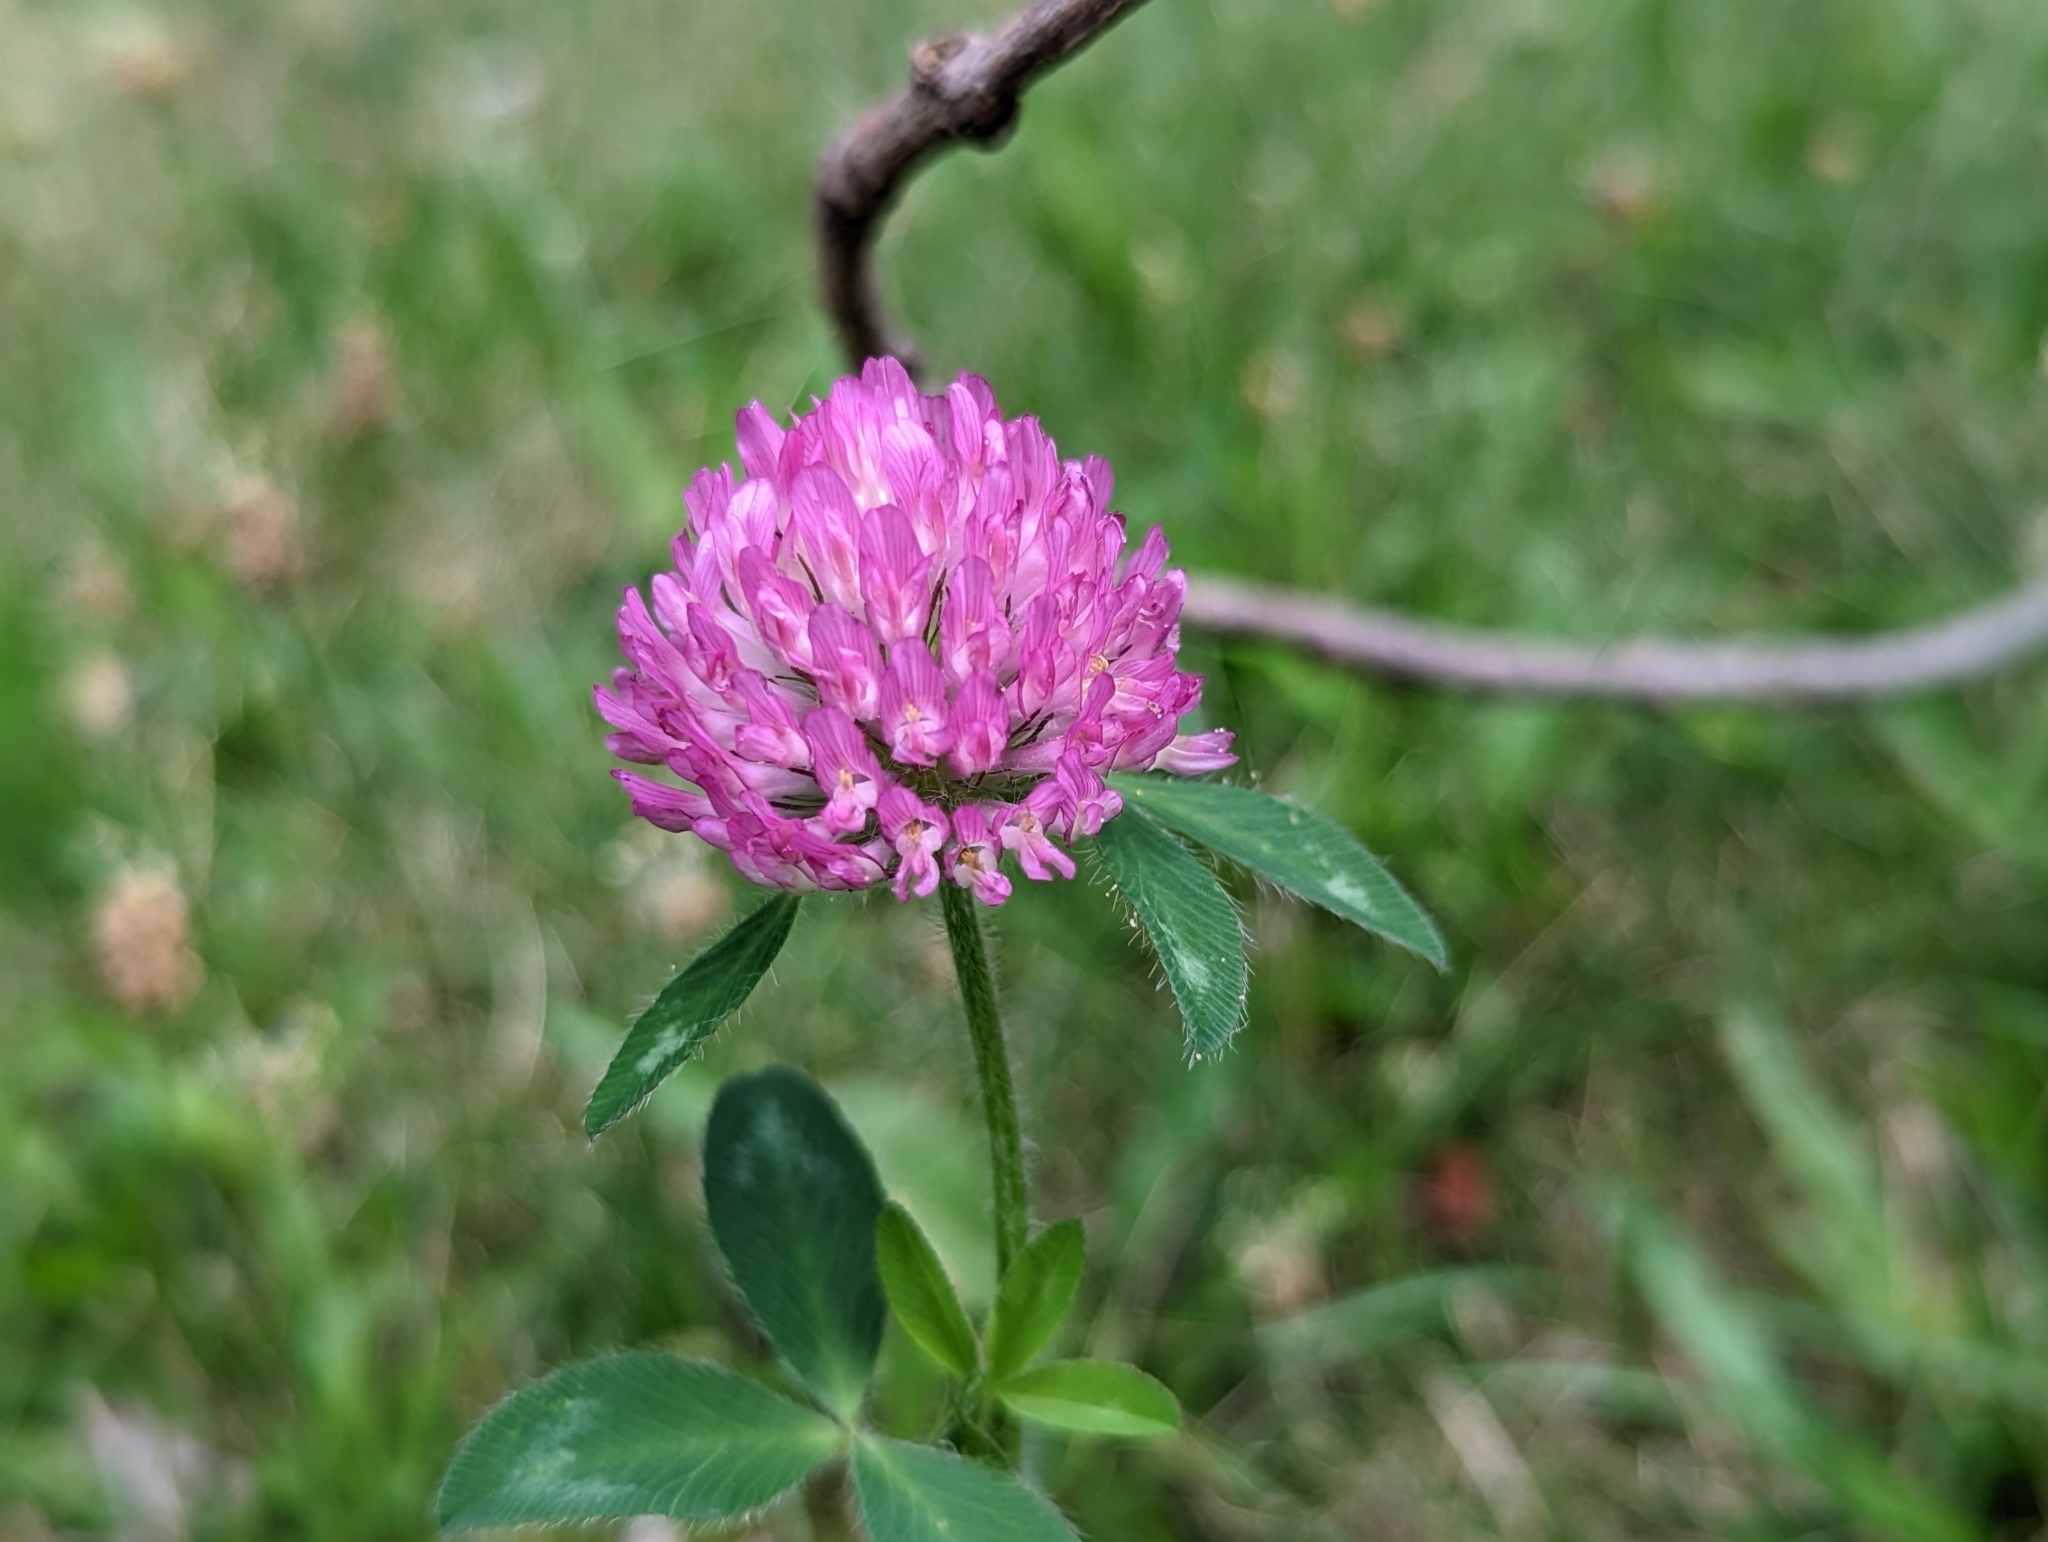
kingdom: Plantae
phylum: Tracheophyta
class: Magnoliopsida
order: Fabales
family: Fabaceae
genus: Trifolium
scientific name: Trifolium pratense
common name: Red clover
